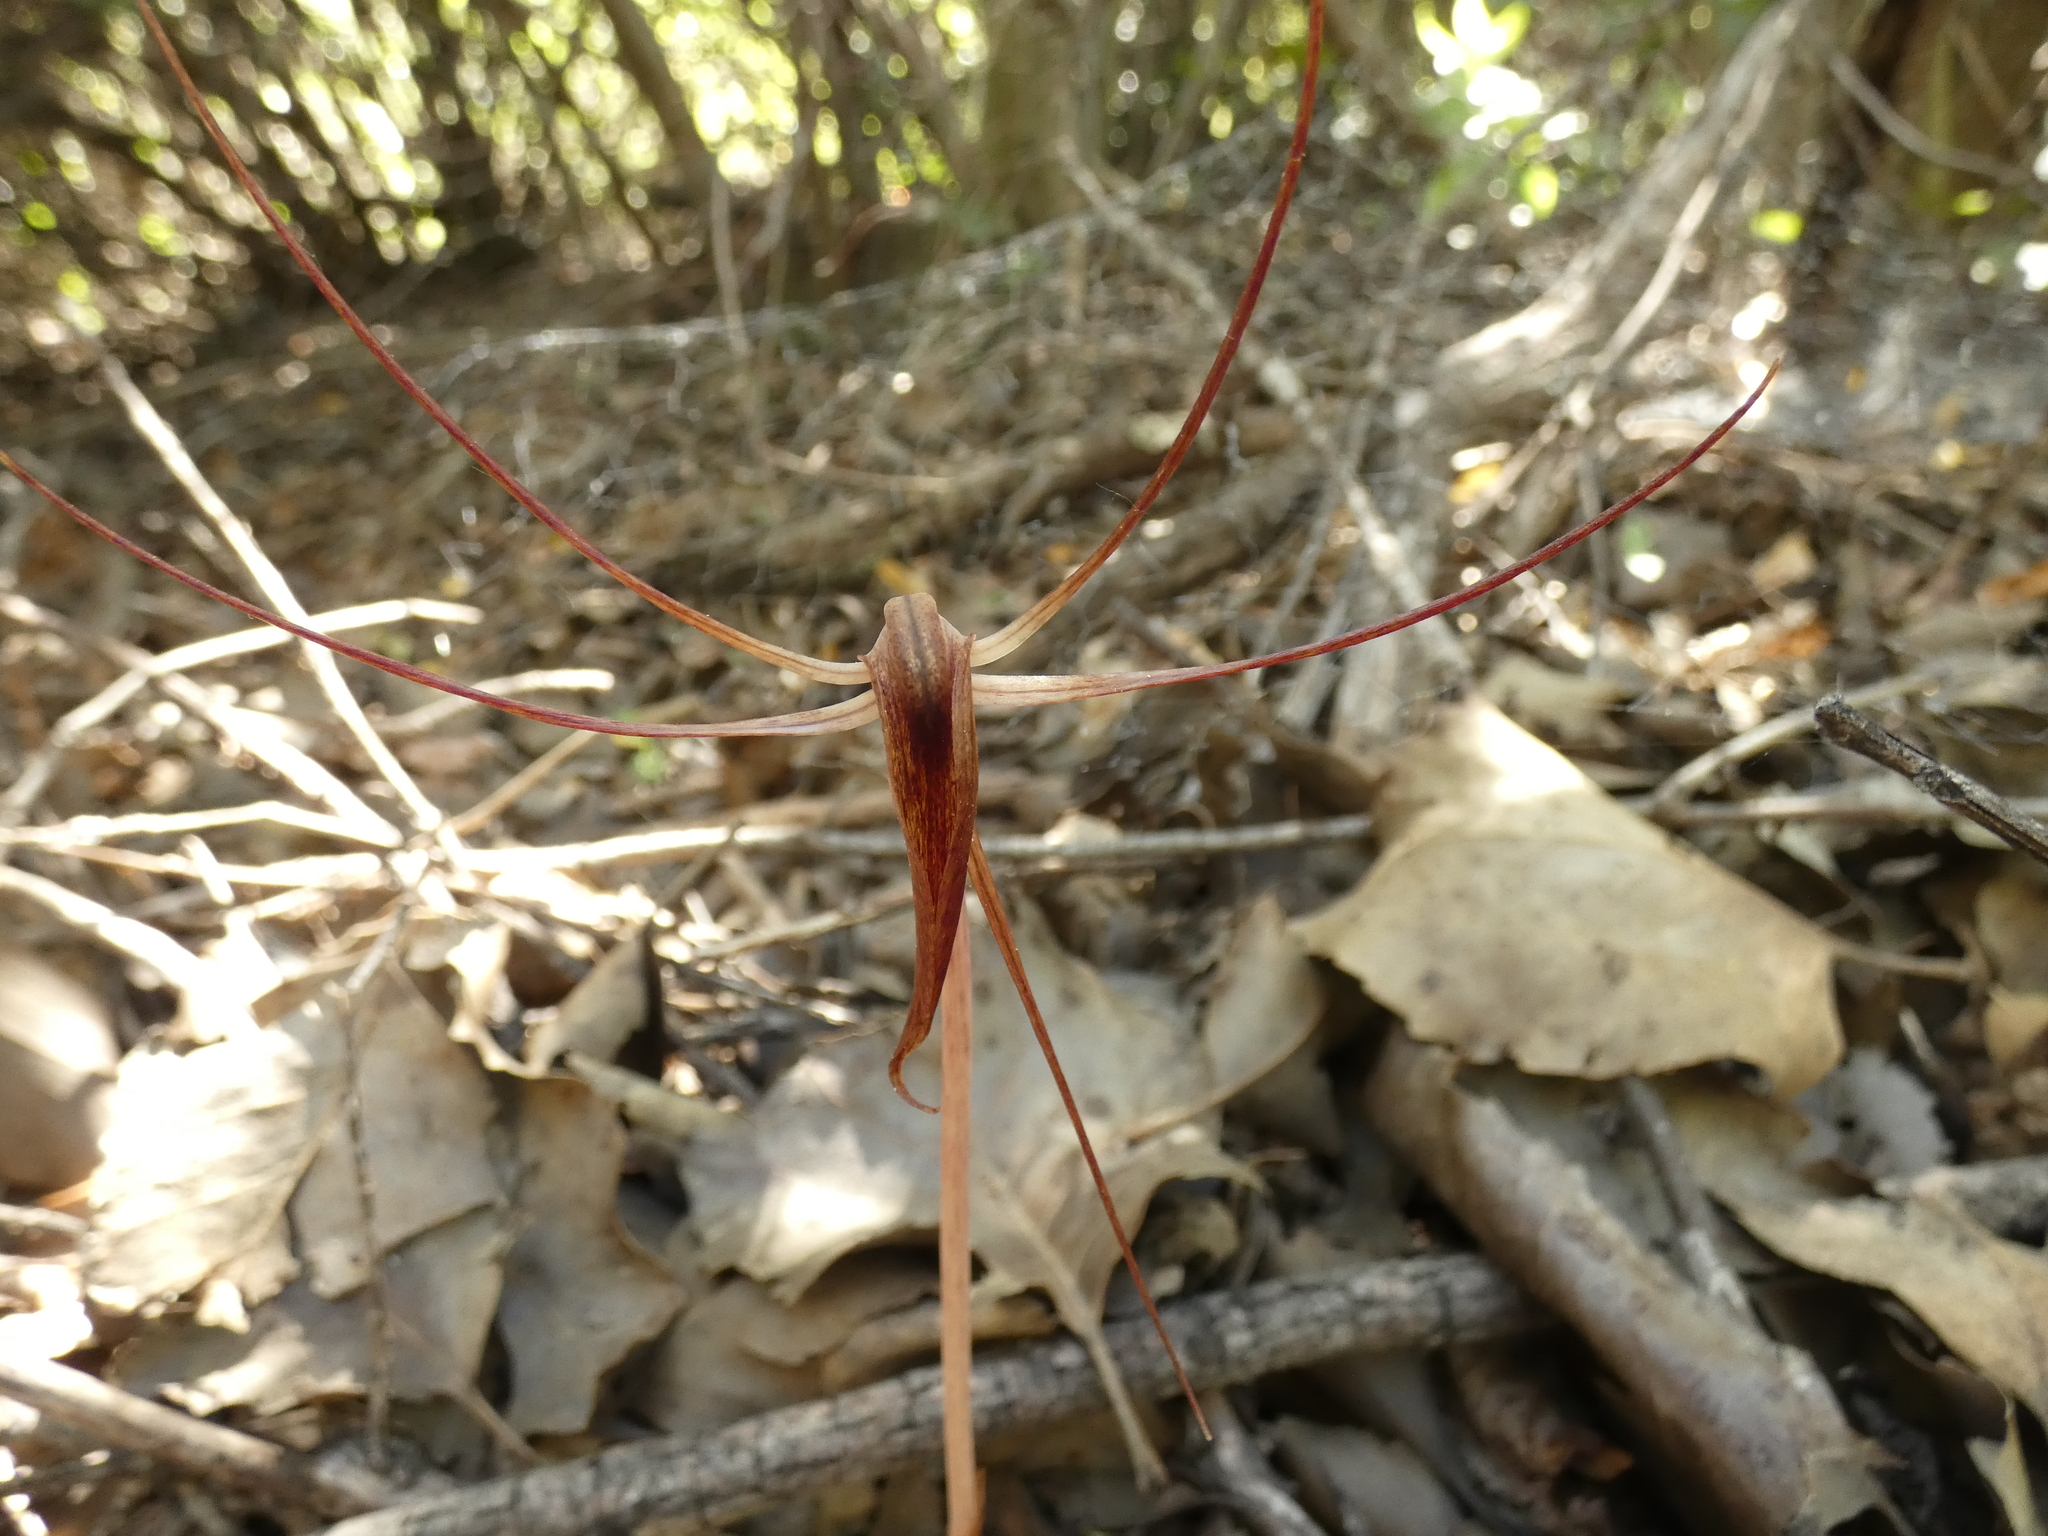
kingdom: Plantae
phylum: Tracheophyta
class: Liliopsida
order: Liliales
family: Corsiaceae
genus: Arachnitis
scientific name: Arachnitis uniflora
